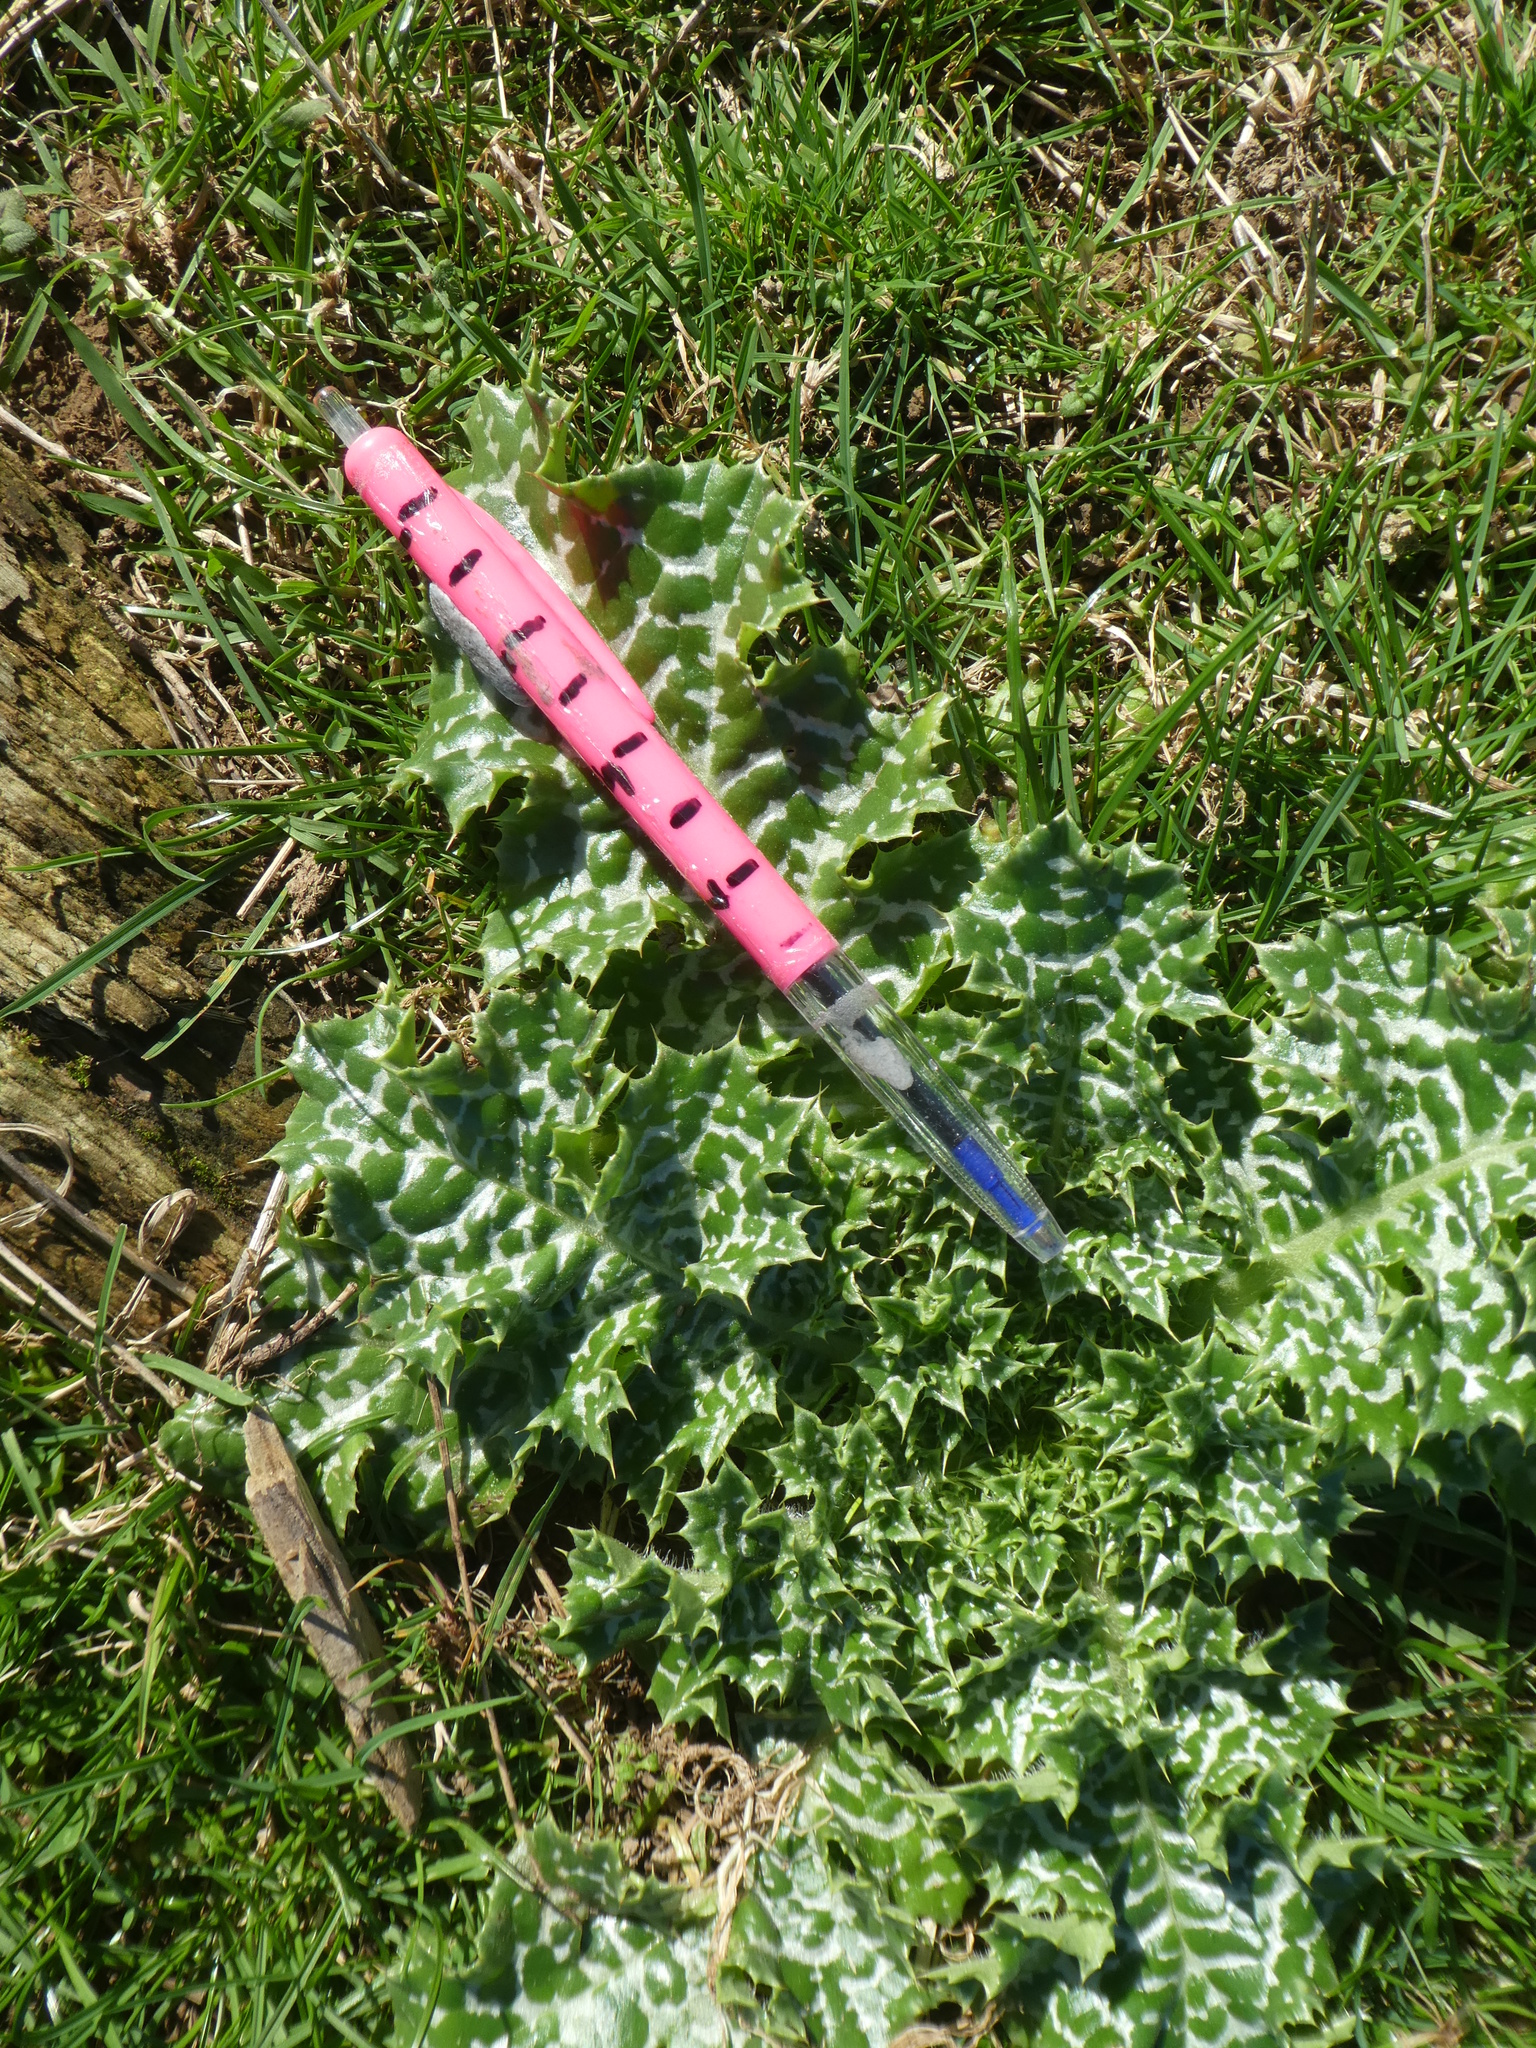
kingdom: Plantae
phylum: Tracheophyta
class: Magnoliopsida
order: Asterales
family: Asteraceae
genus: Silybum
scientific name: Silybum marianum
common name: Milk thistle
